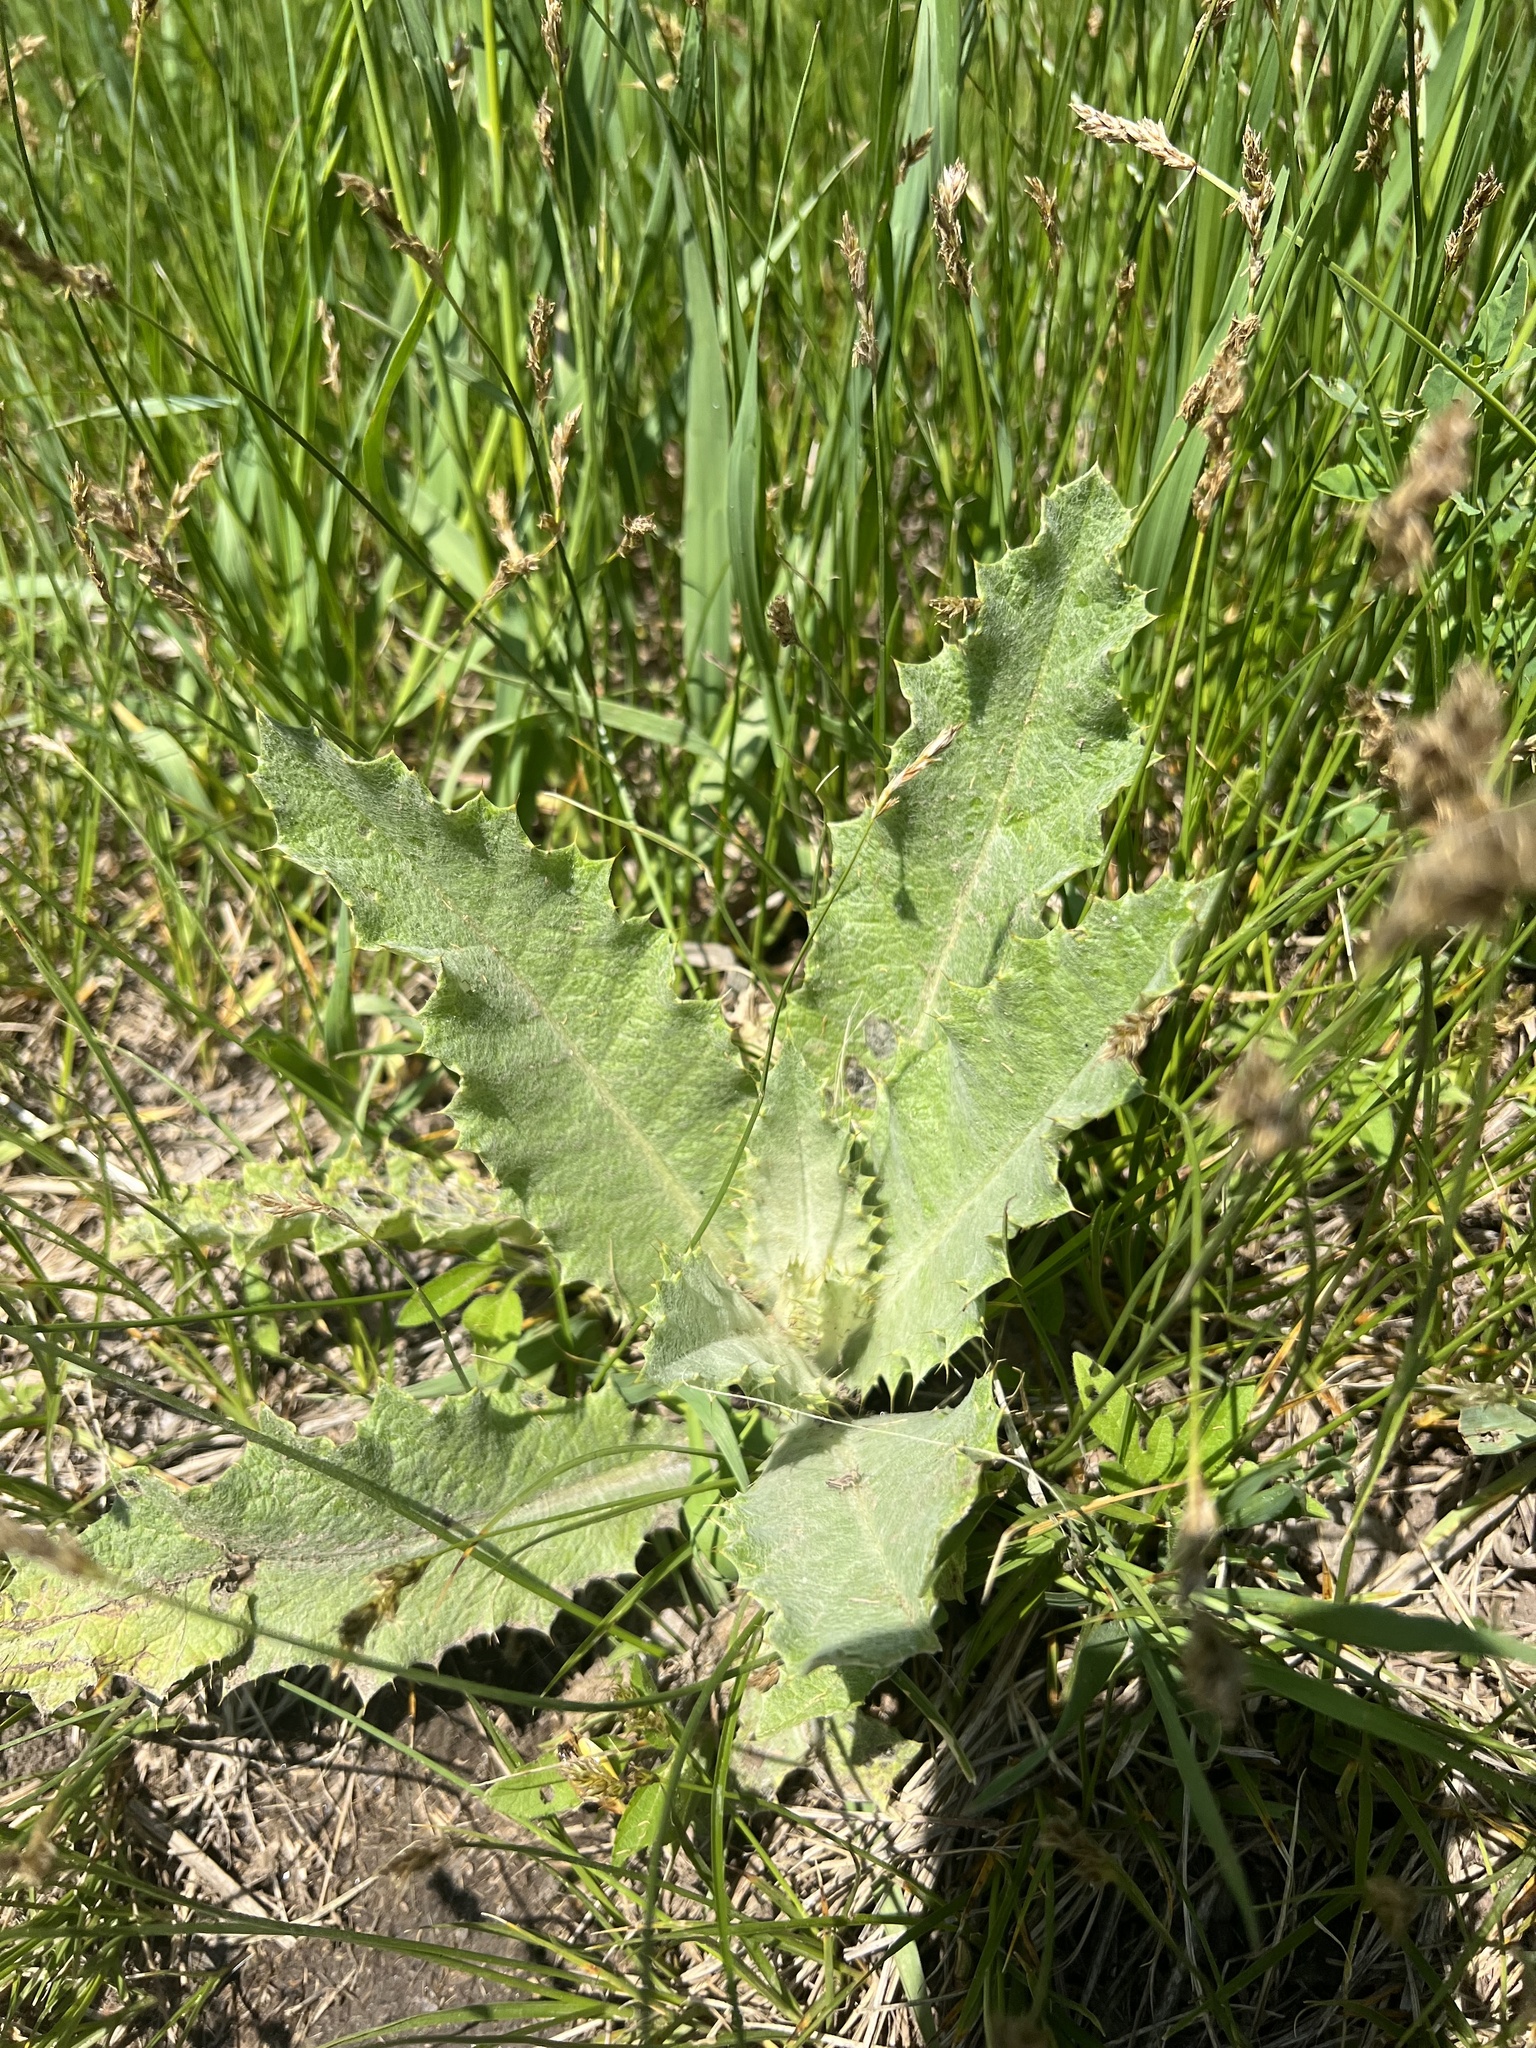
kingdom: Plantae
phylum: Tracheophyta
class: Magnoliopsida
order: Asterales
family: Asteraceae
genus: Onopordum
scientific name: Onopordum acanthium
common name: Scotch thistle
